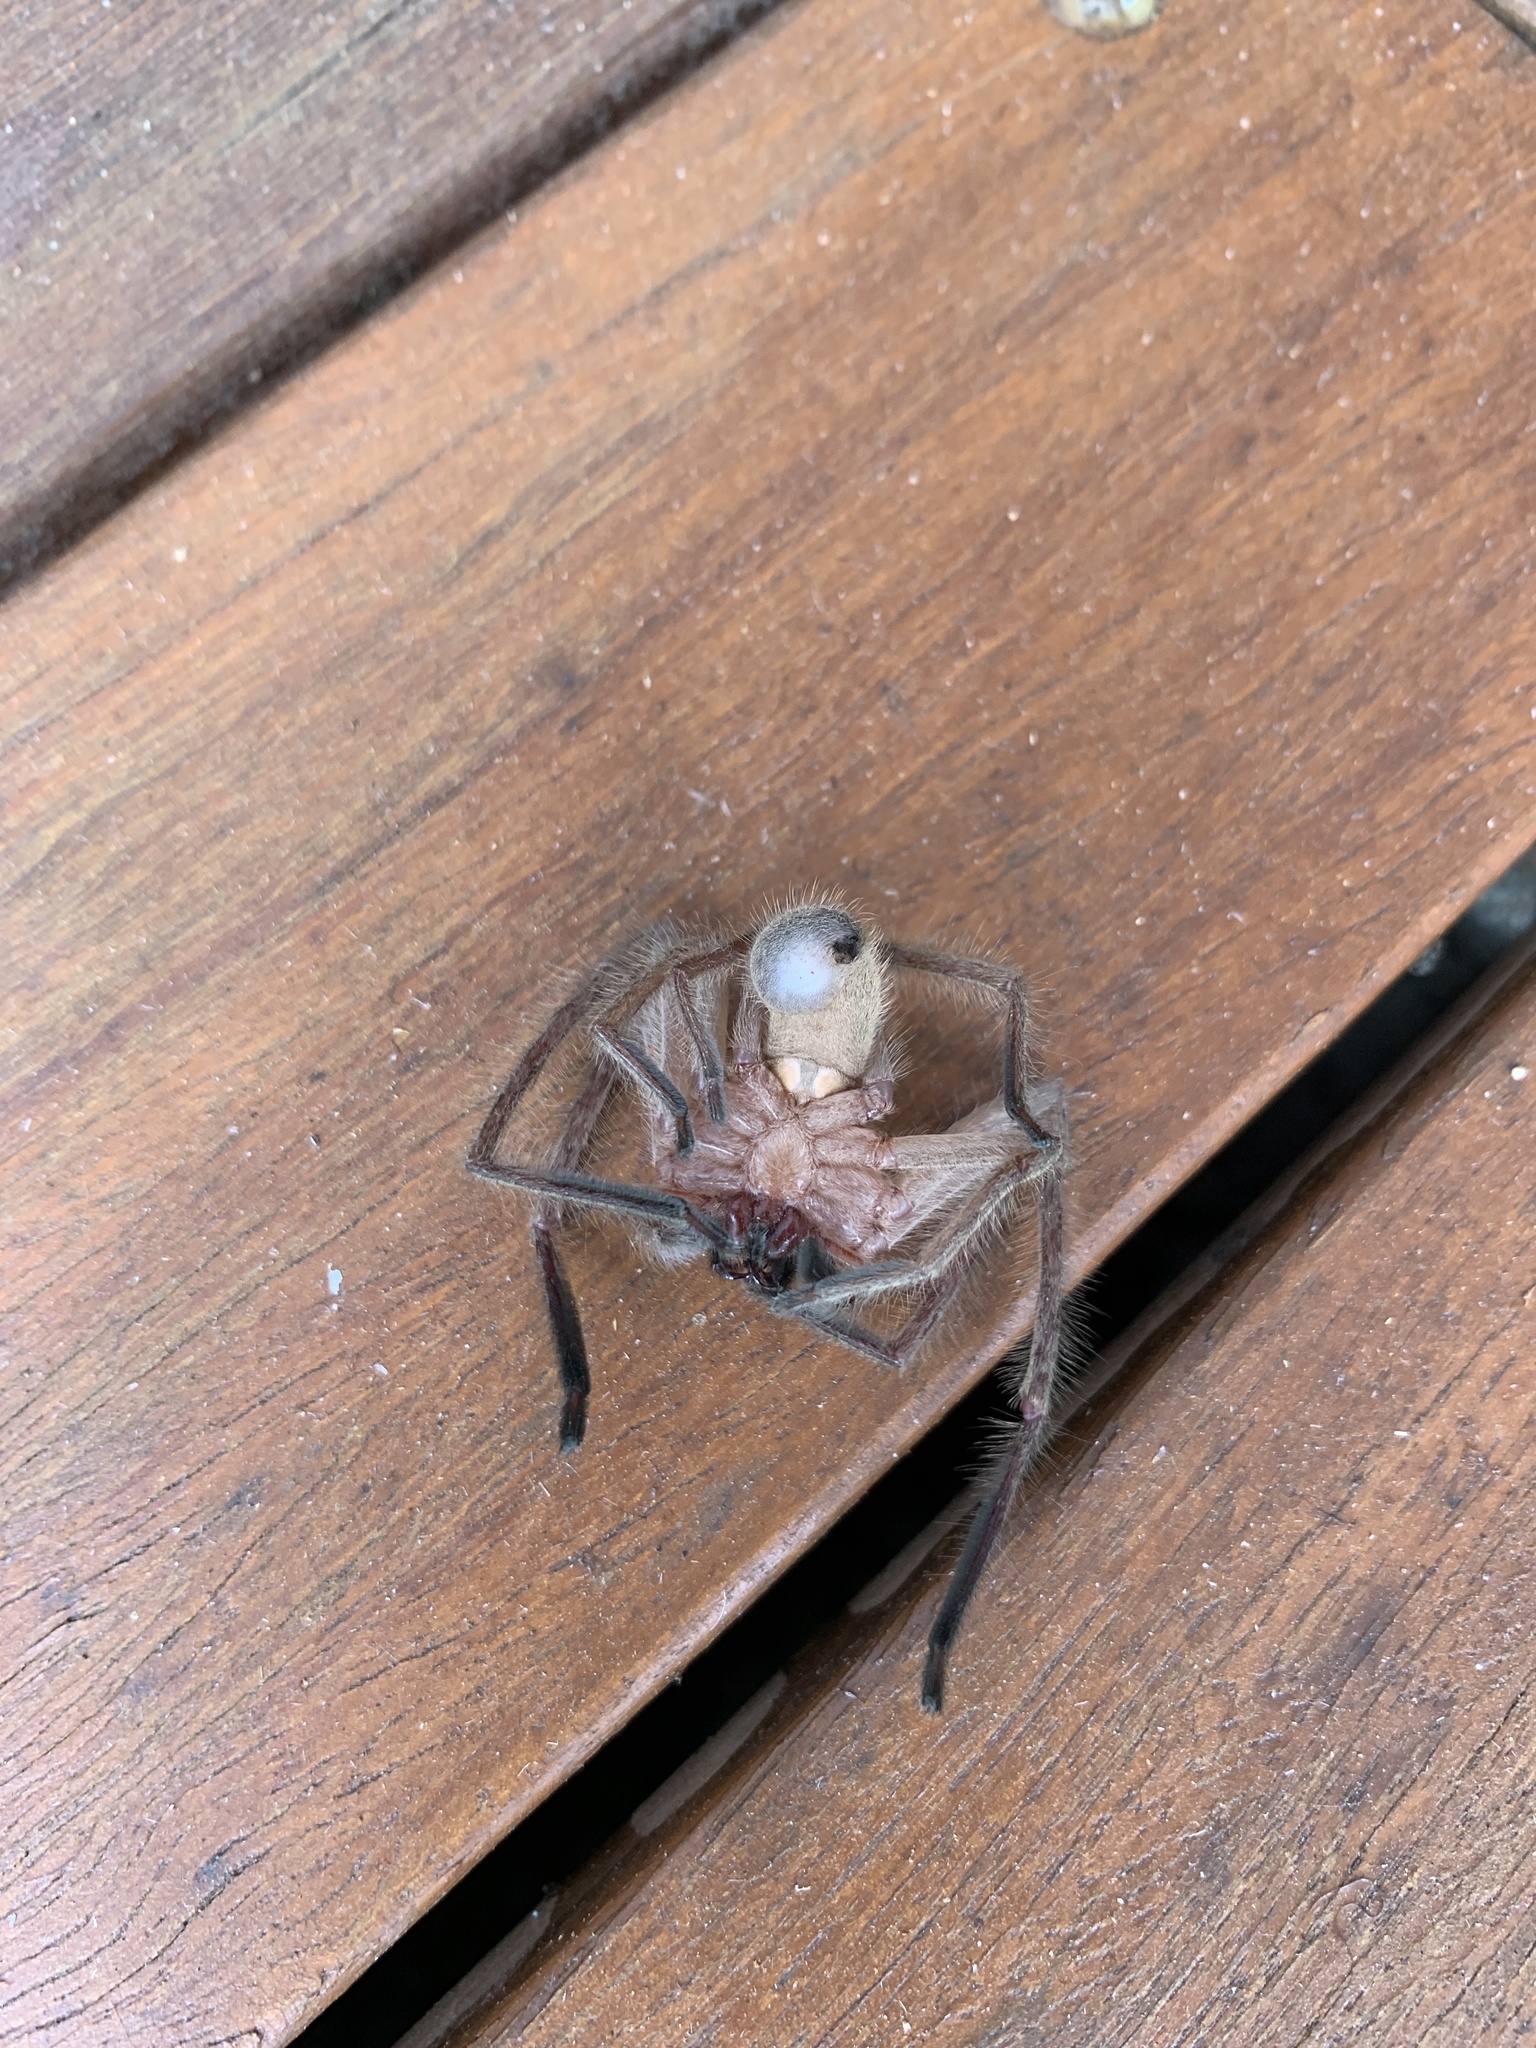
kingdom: Animalia
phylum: Arthropoda
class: Arachnida
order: Araneae
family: Sparassidae
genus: Delena
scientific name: Delena cancerides
